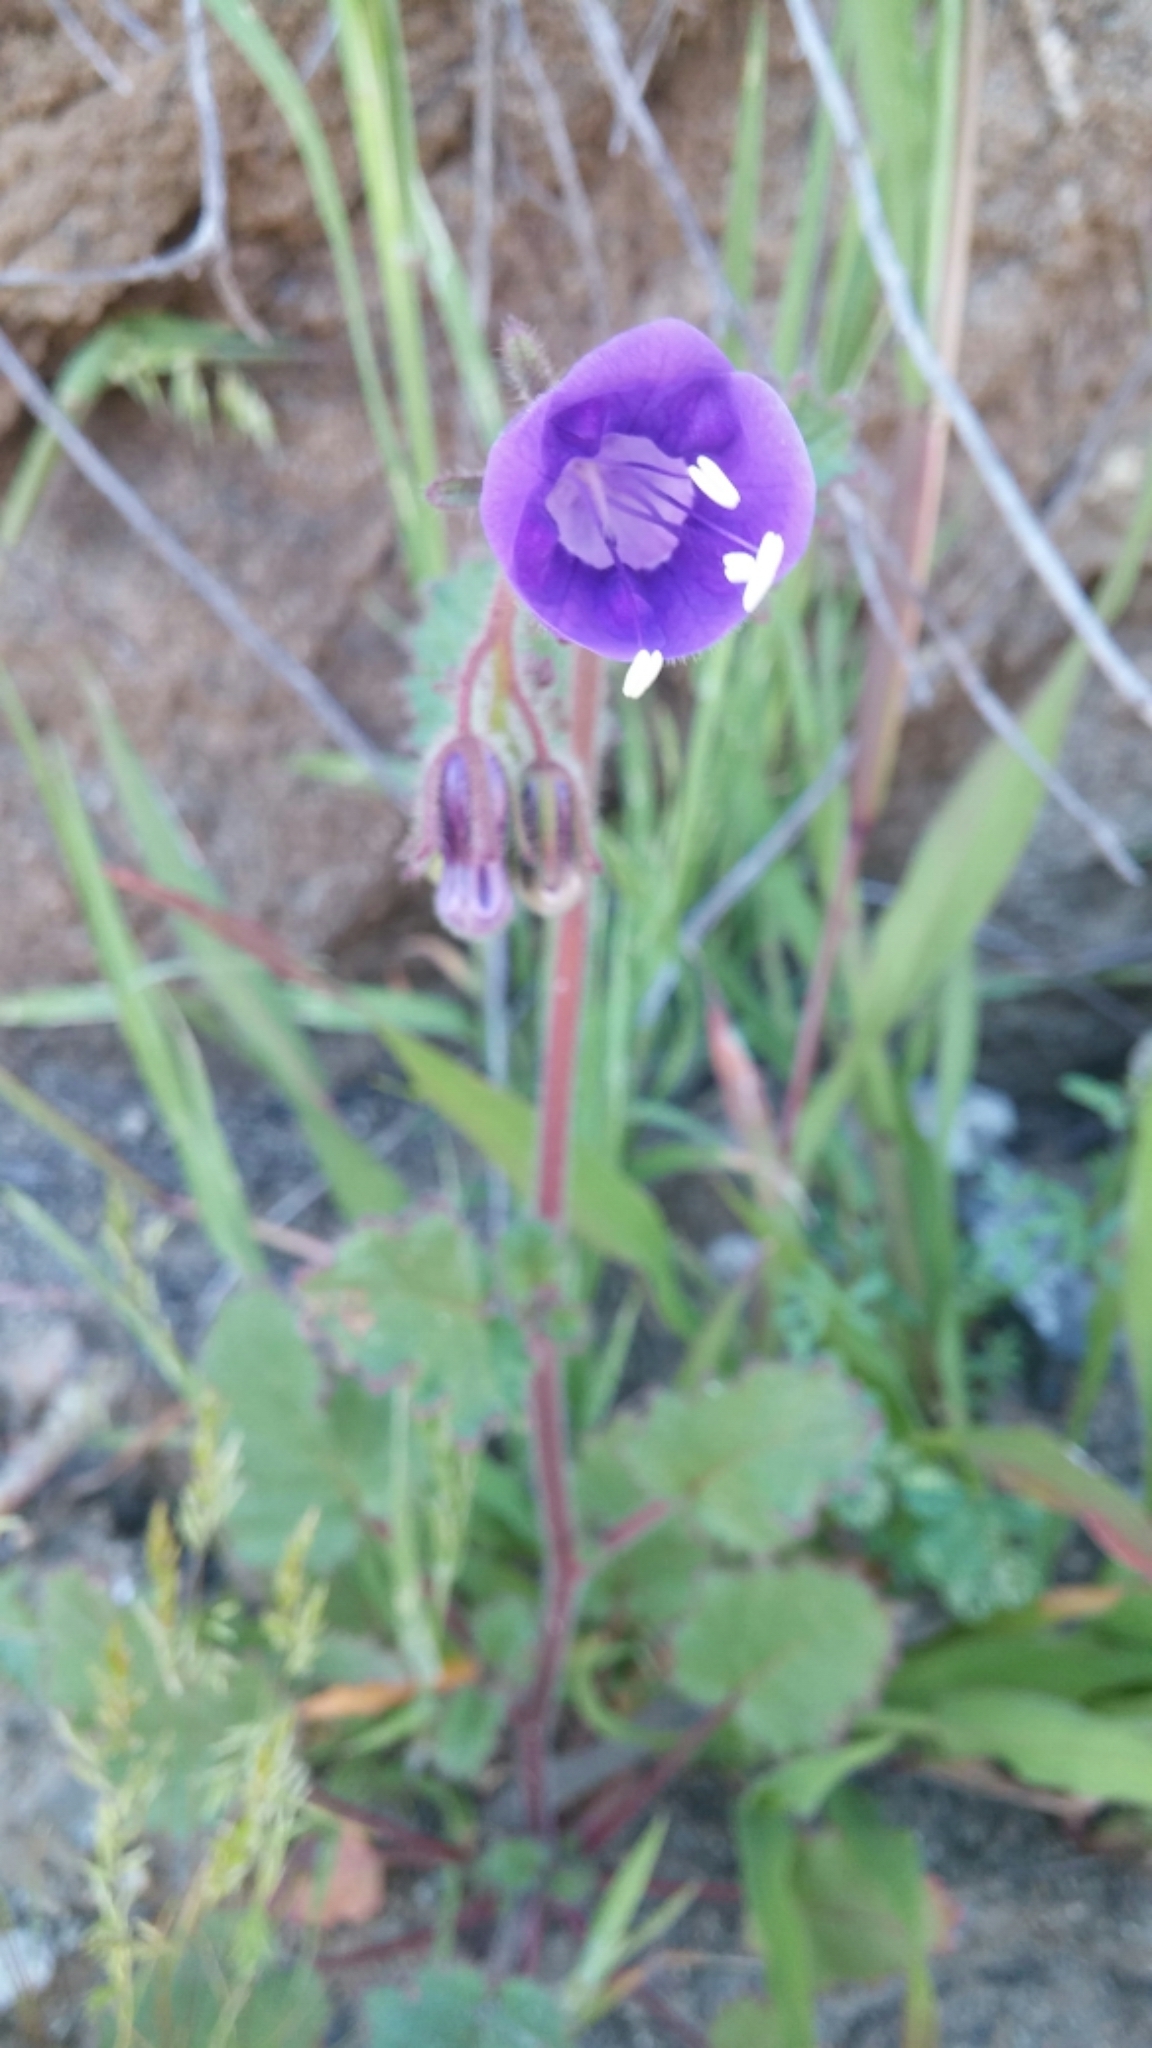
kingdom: Plantae
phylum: Tracheophyta
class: Magnoliopsida
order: Boraginales
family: Hydrophyllaceae
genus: Phacelia
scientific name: Phacelia minor
